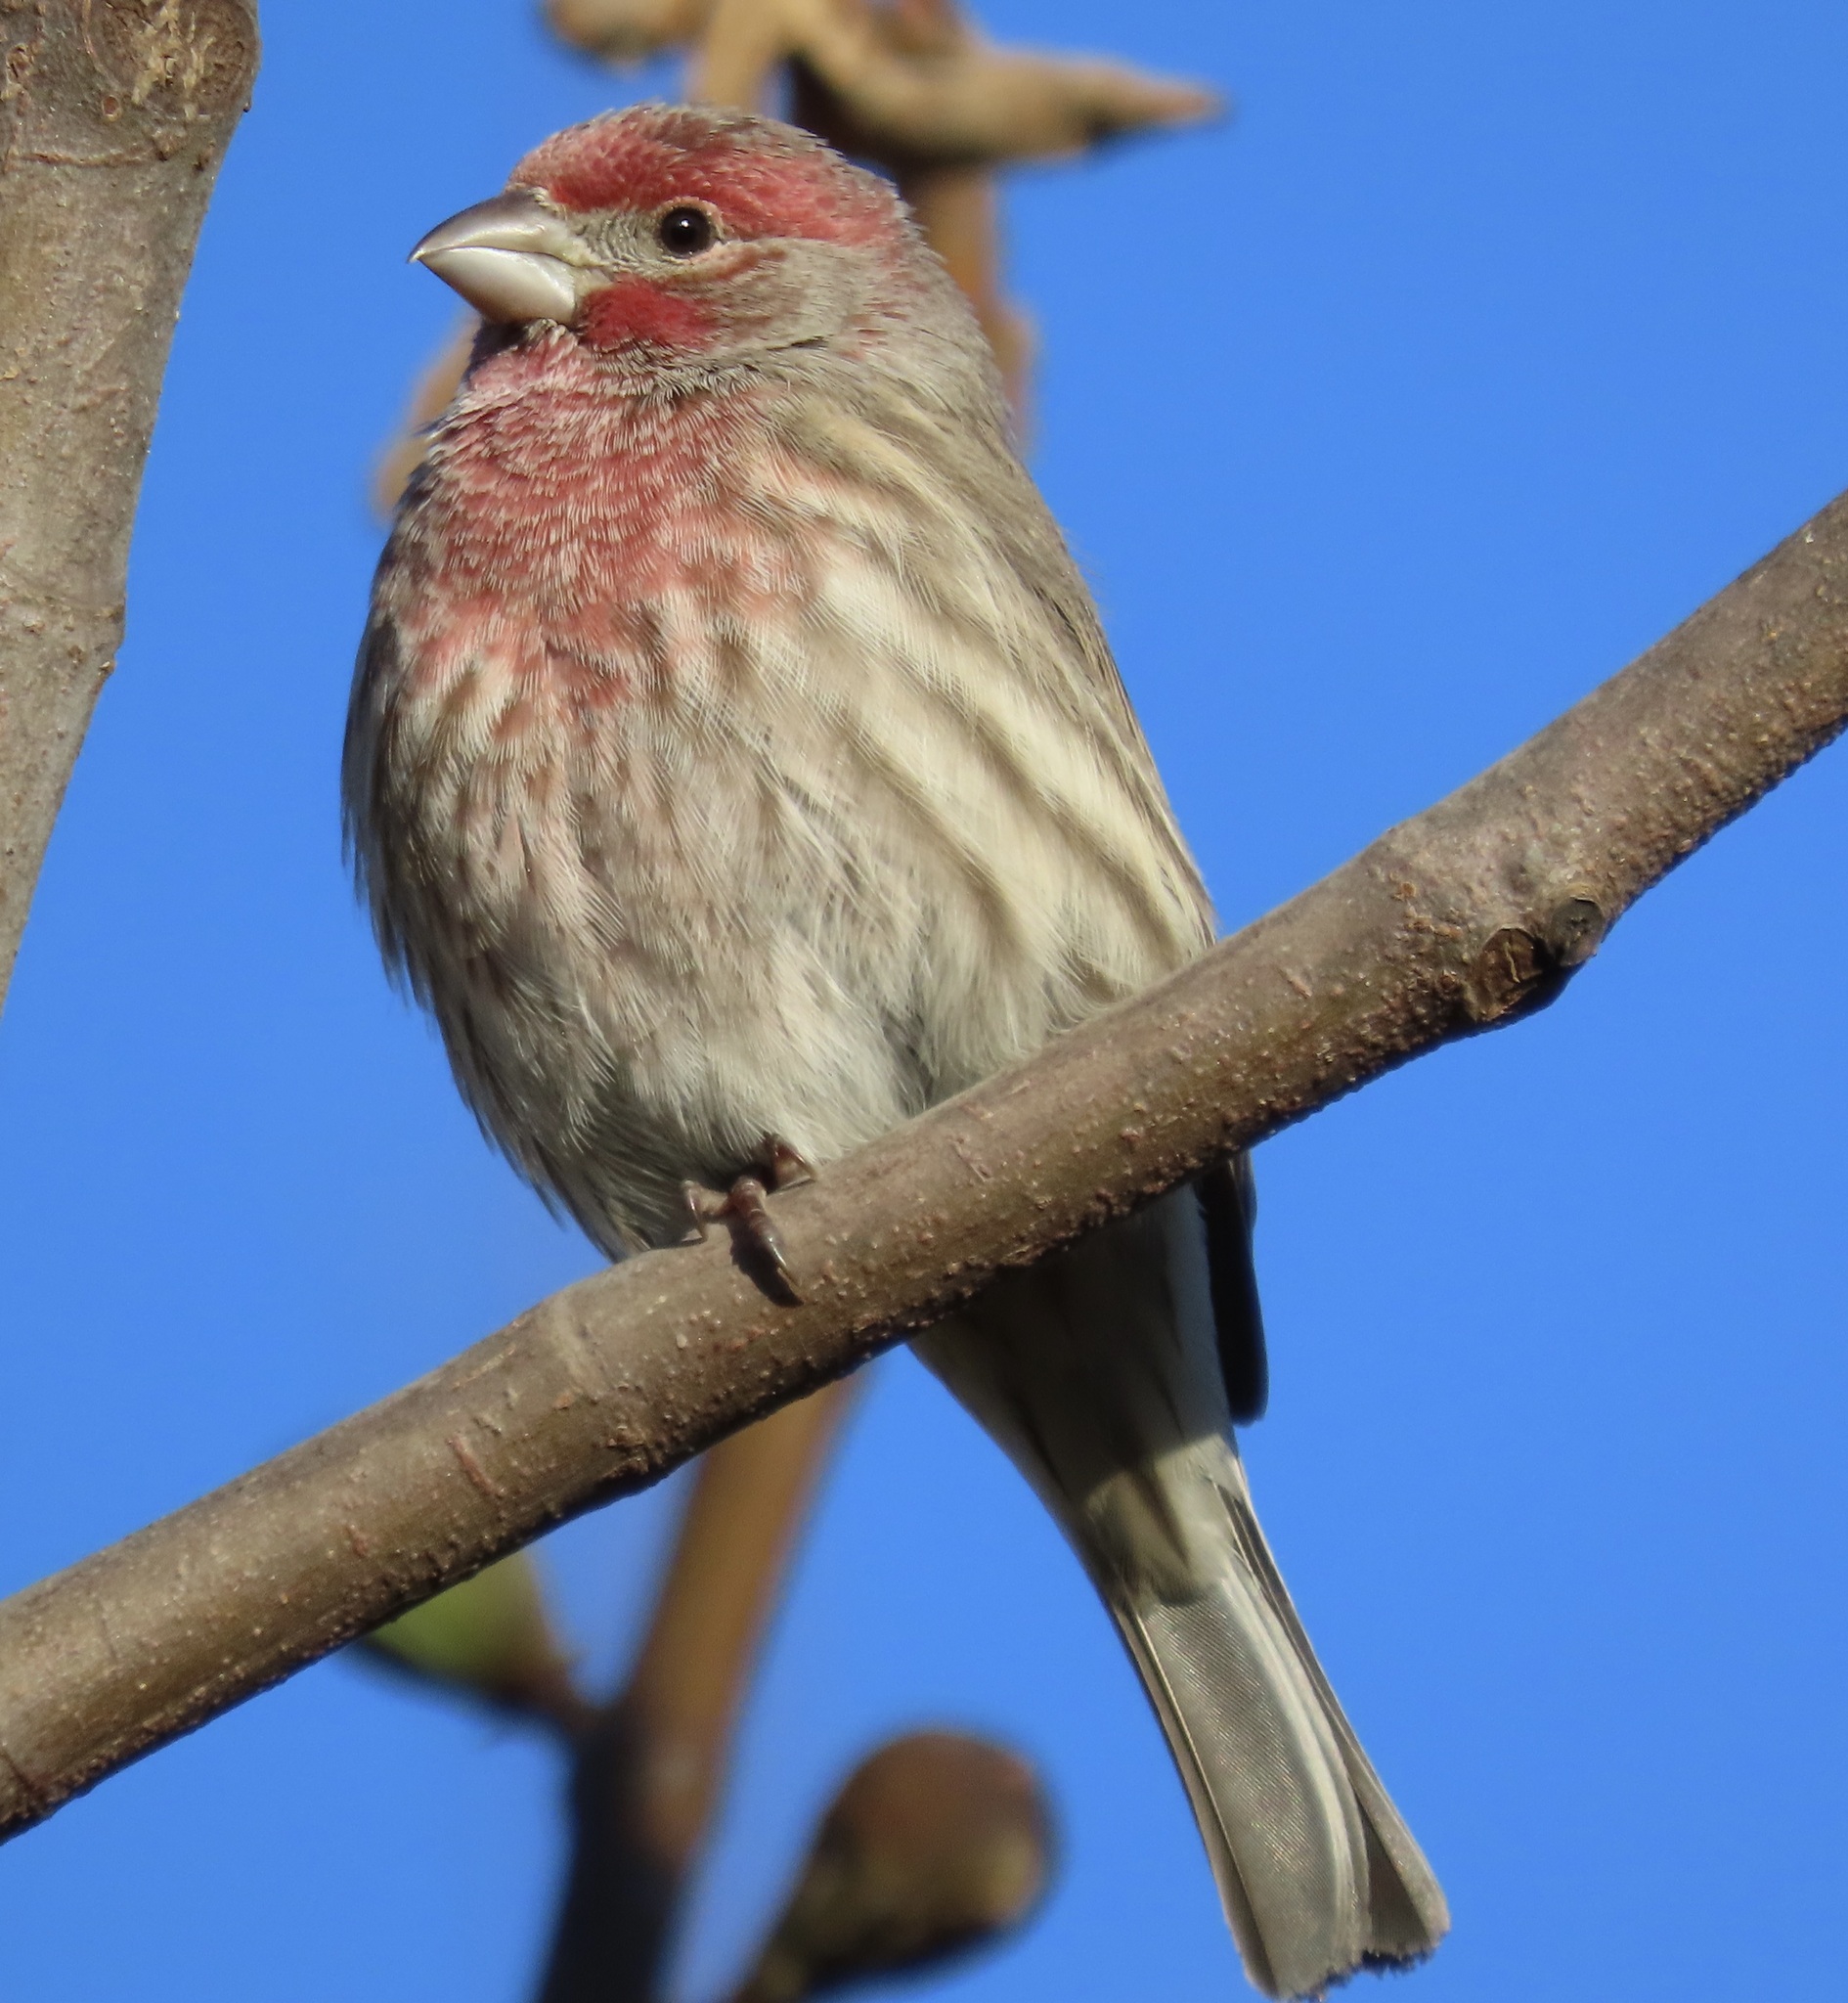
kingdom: Animalia
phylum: Chordata
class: Aves
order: Passeriformes
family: Fringillidae
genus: Haemorhous
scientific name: Haemorhous mexicanus
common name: House finch
